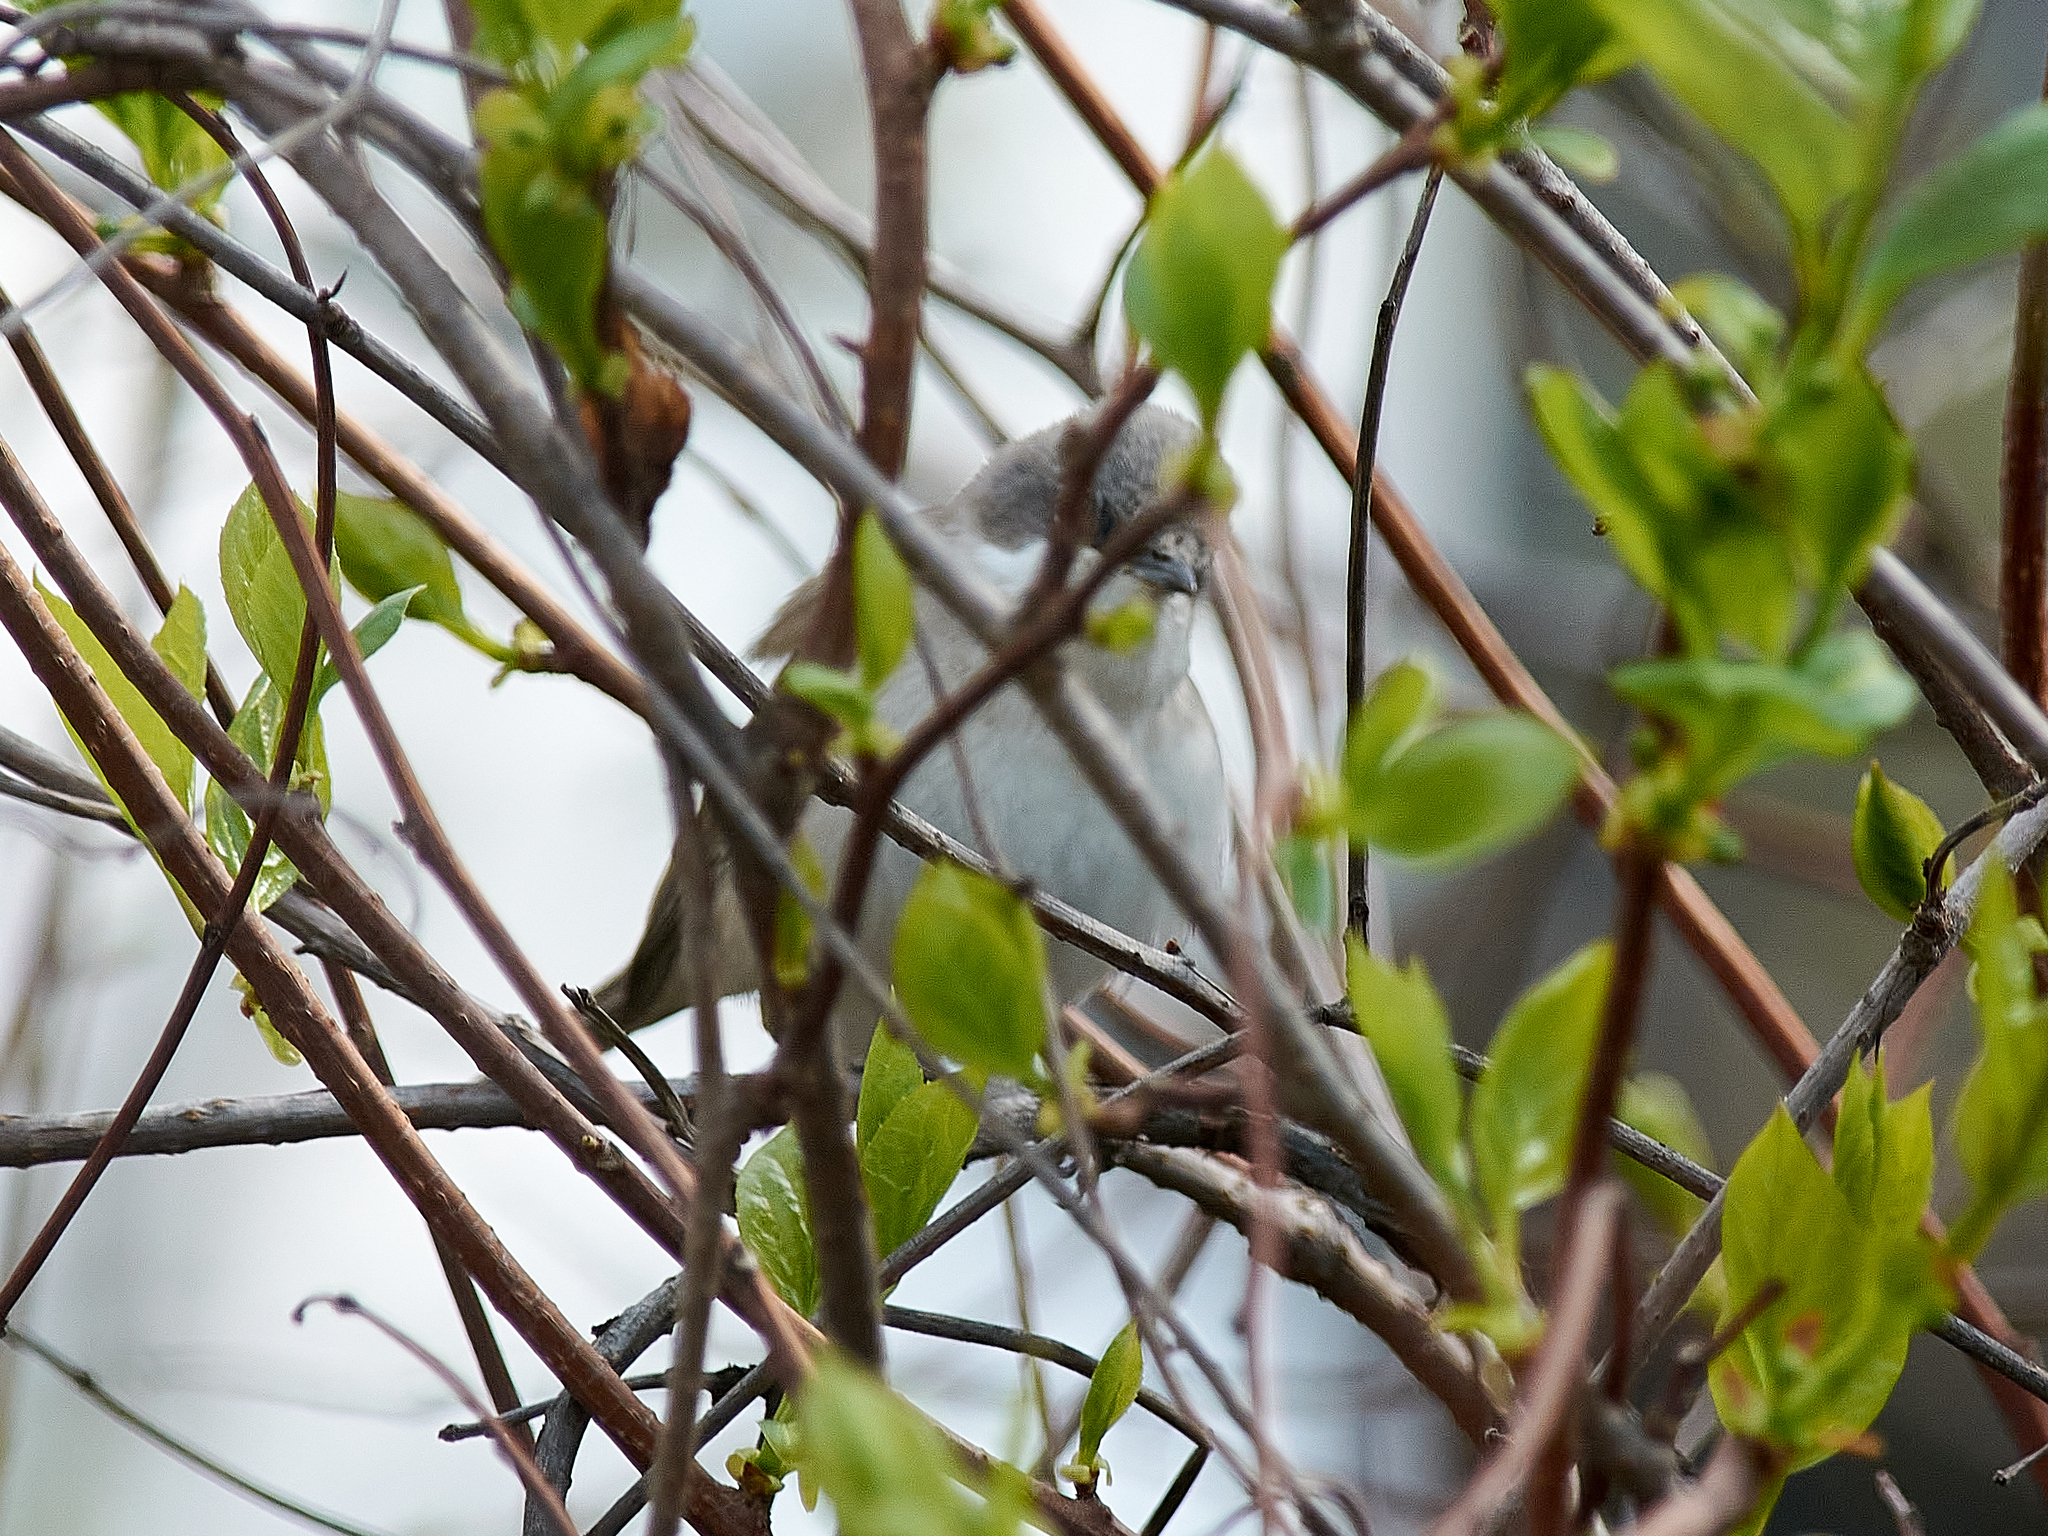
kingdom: Animalia
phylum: Chordata
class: Aves
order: Passeriformes
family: Sylviidae
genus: Sylvia
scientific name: Sylvia curruca
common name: Lesser whitethroat
